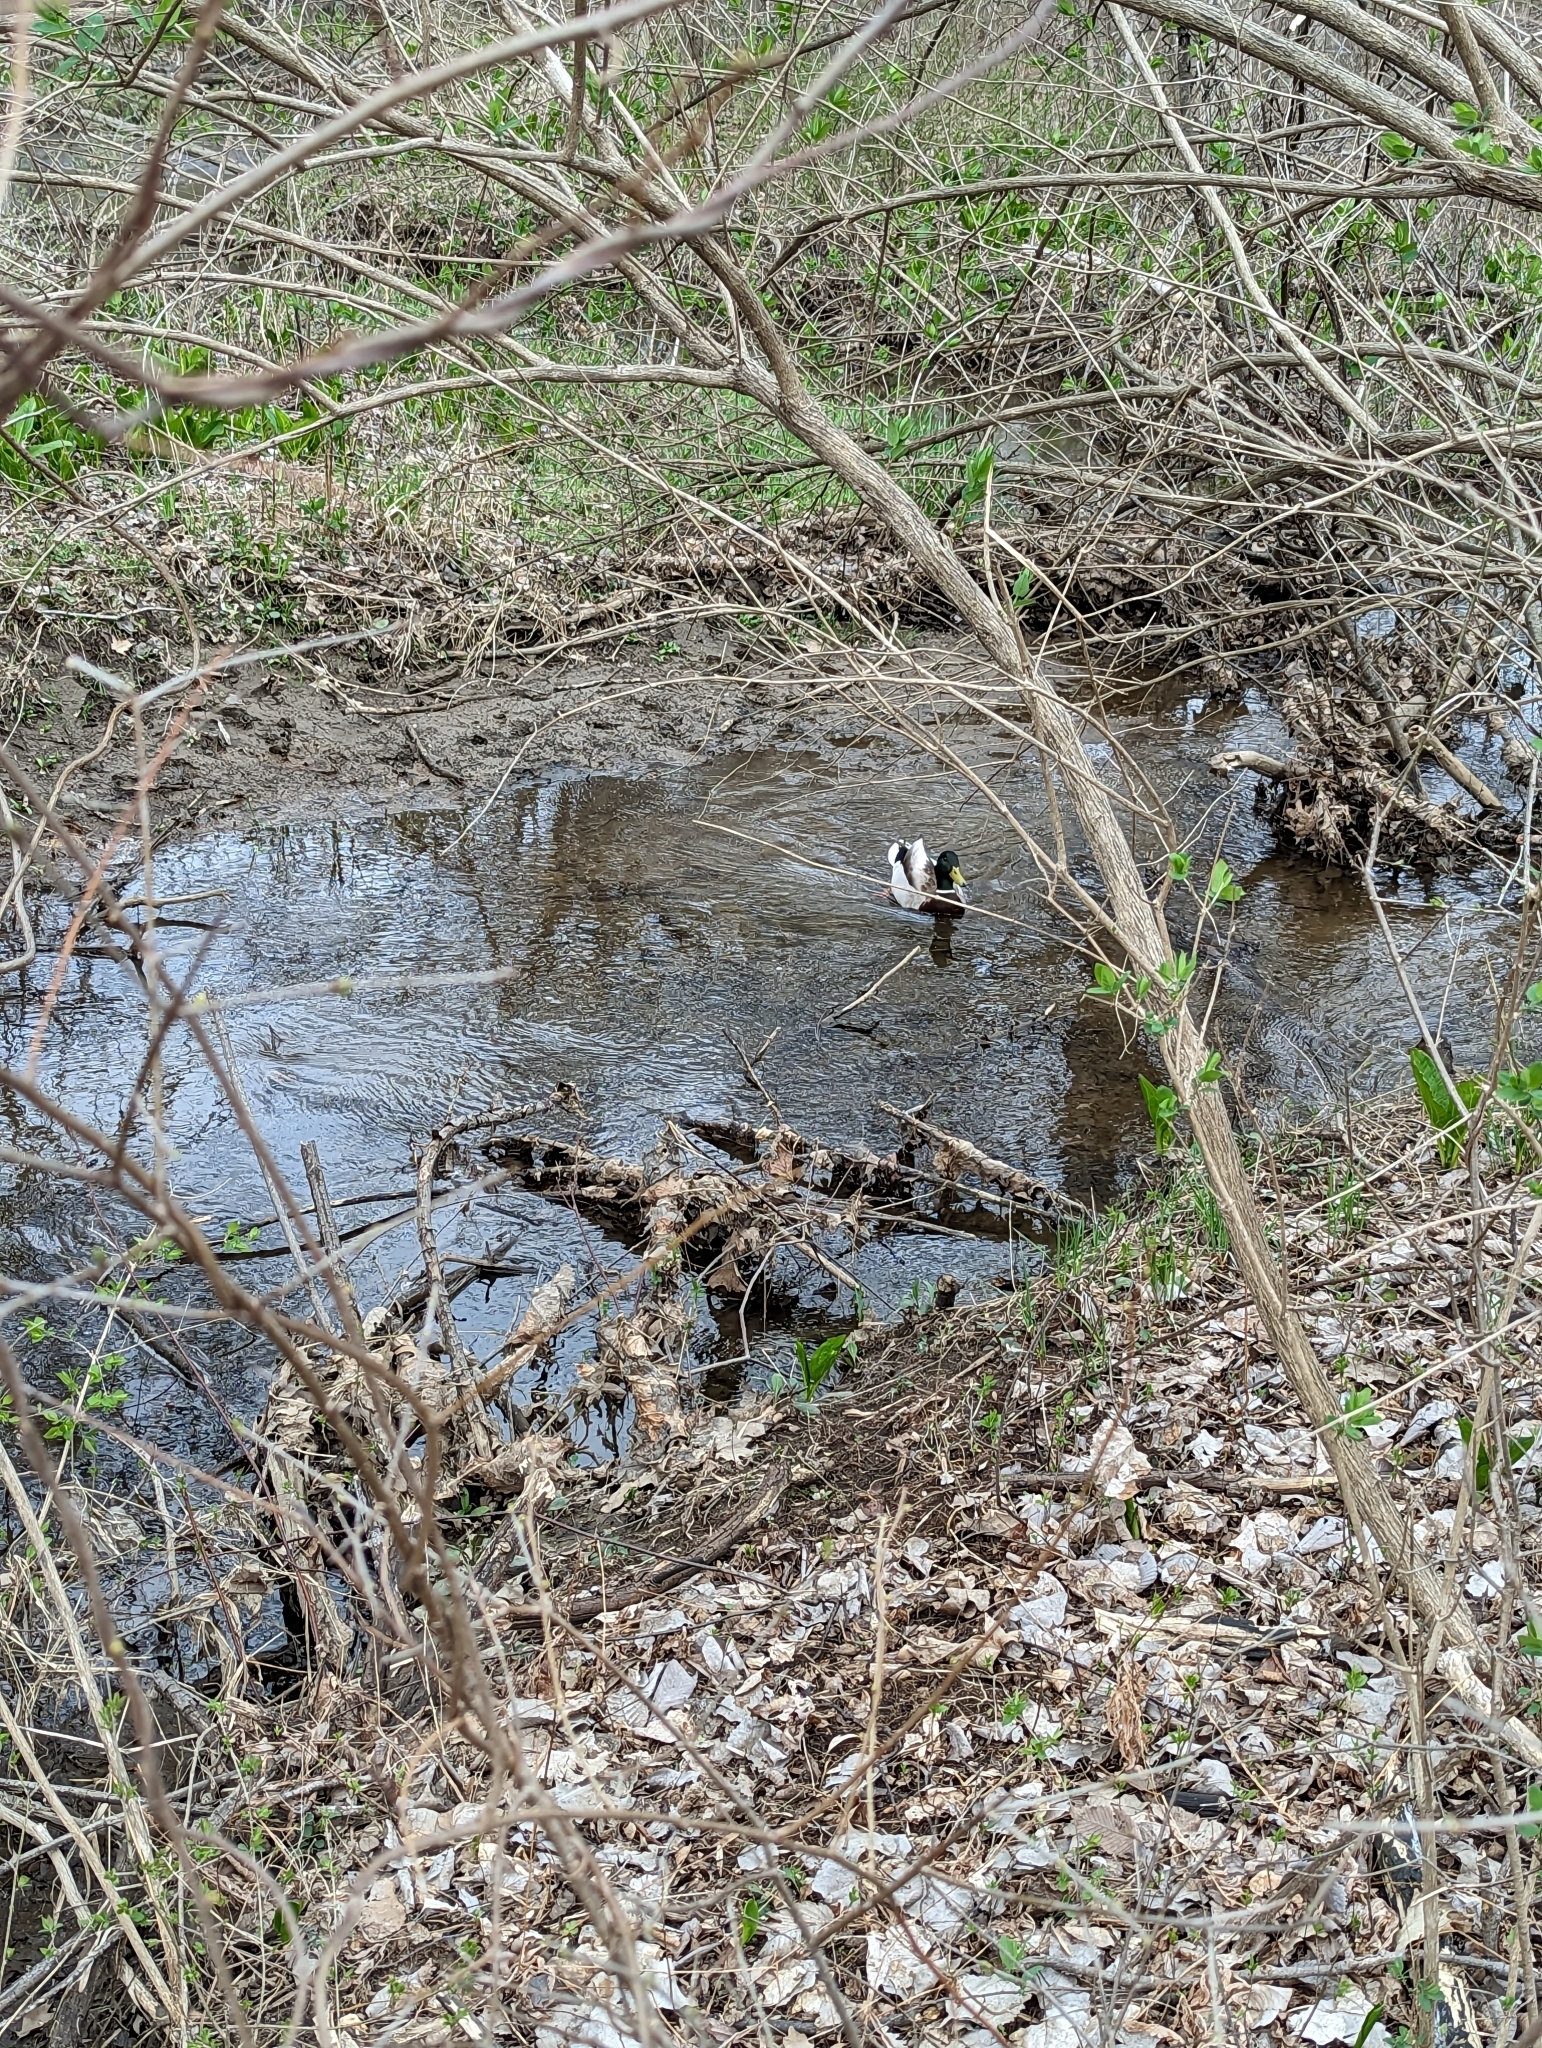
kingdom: Animalia
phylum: Chordata
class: Aves
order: Anseriformes
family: Anatidae
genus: Anas
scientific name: Anas platyrhynchos
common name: Mallard
